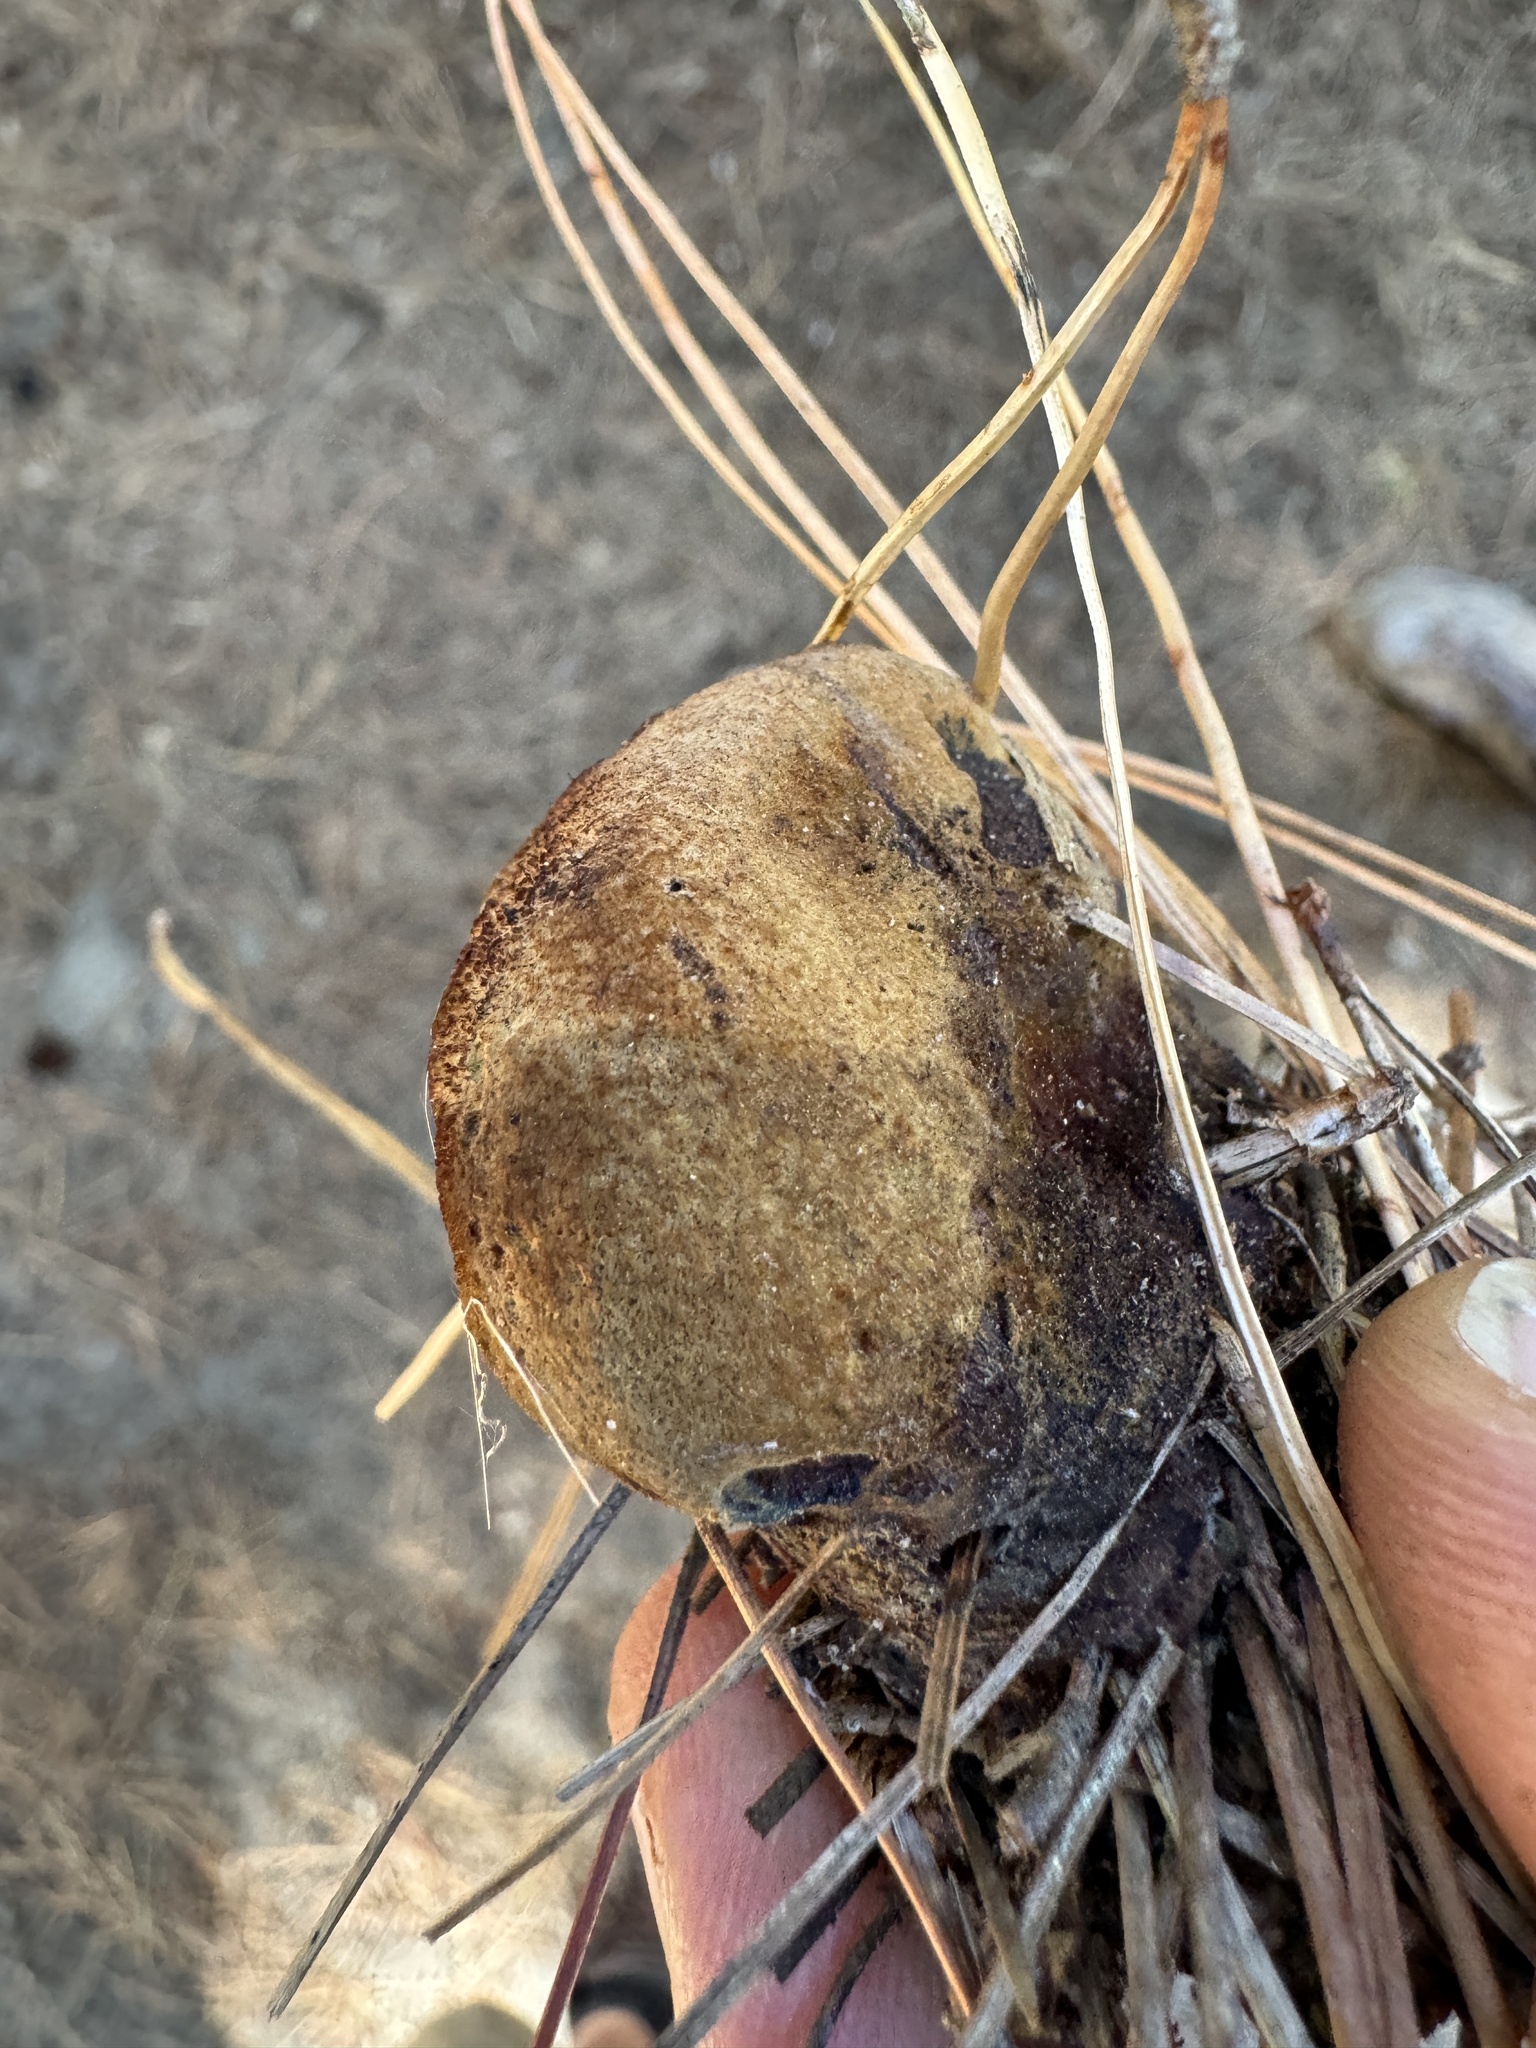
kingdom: Fungi
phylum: Basidiomycota
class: Agaricomycetes
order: Polyporales
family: Laetiporaceae
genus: Phaeolus
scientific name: Phaeolus schweinitzii
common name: Dyer's mazegill
